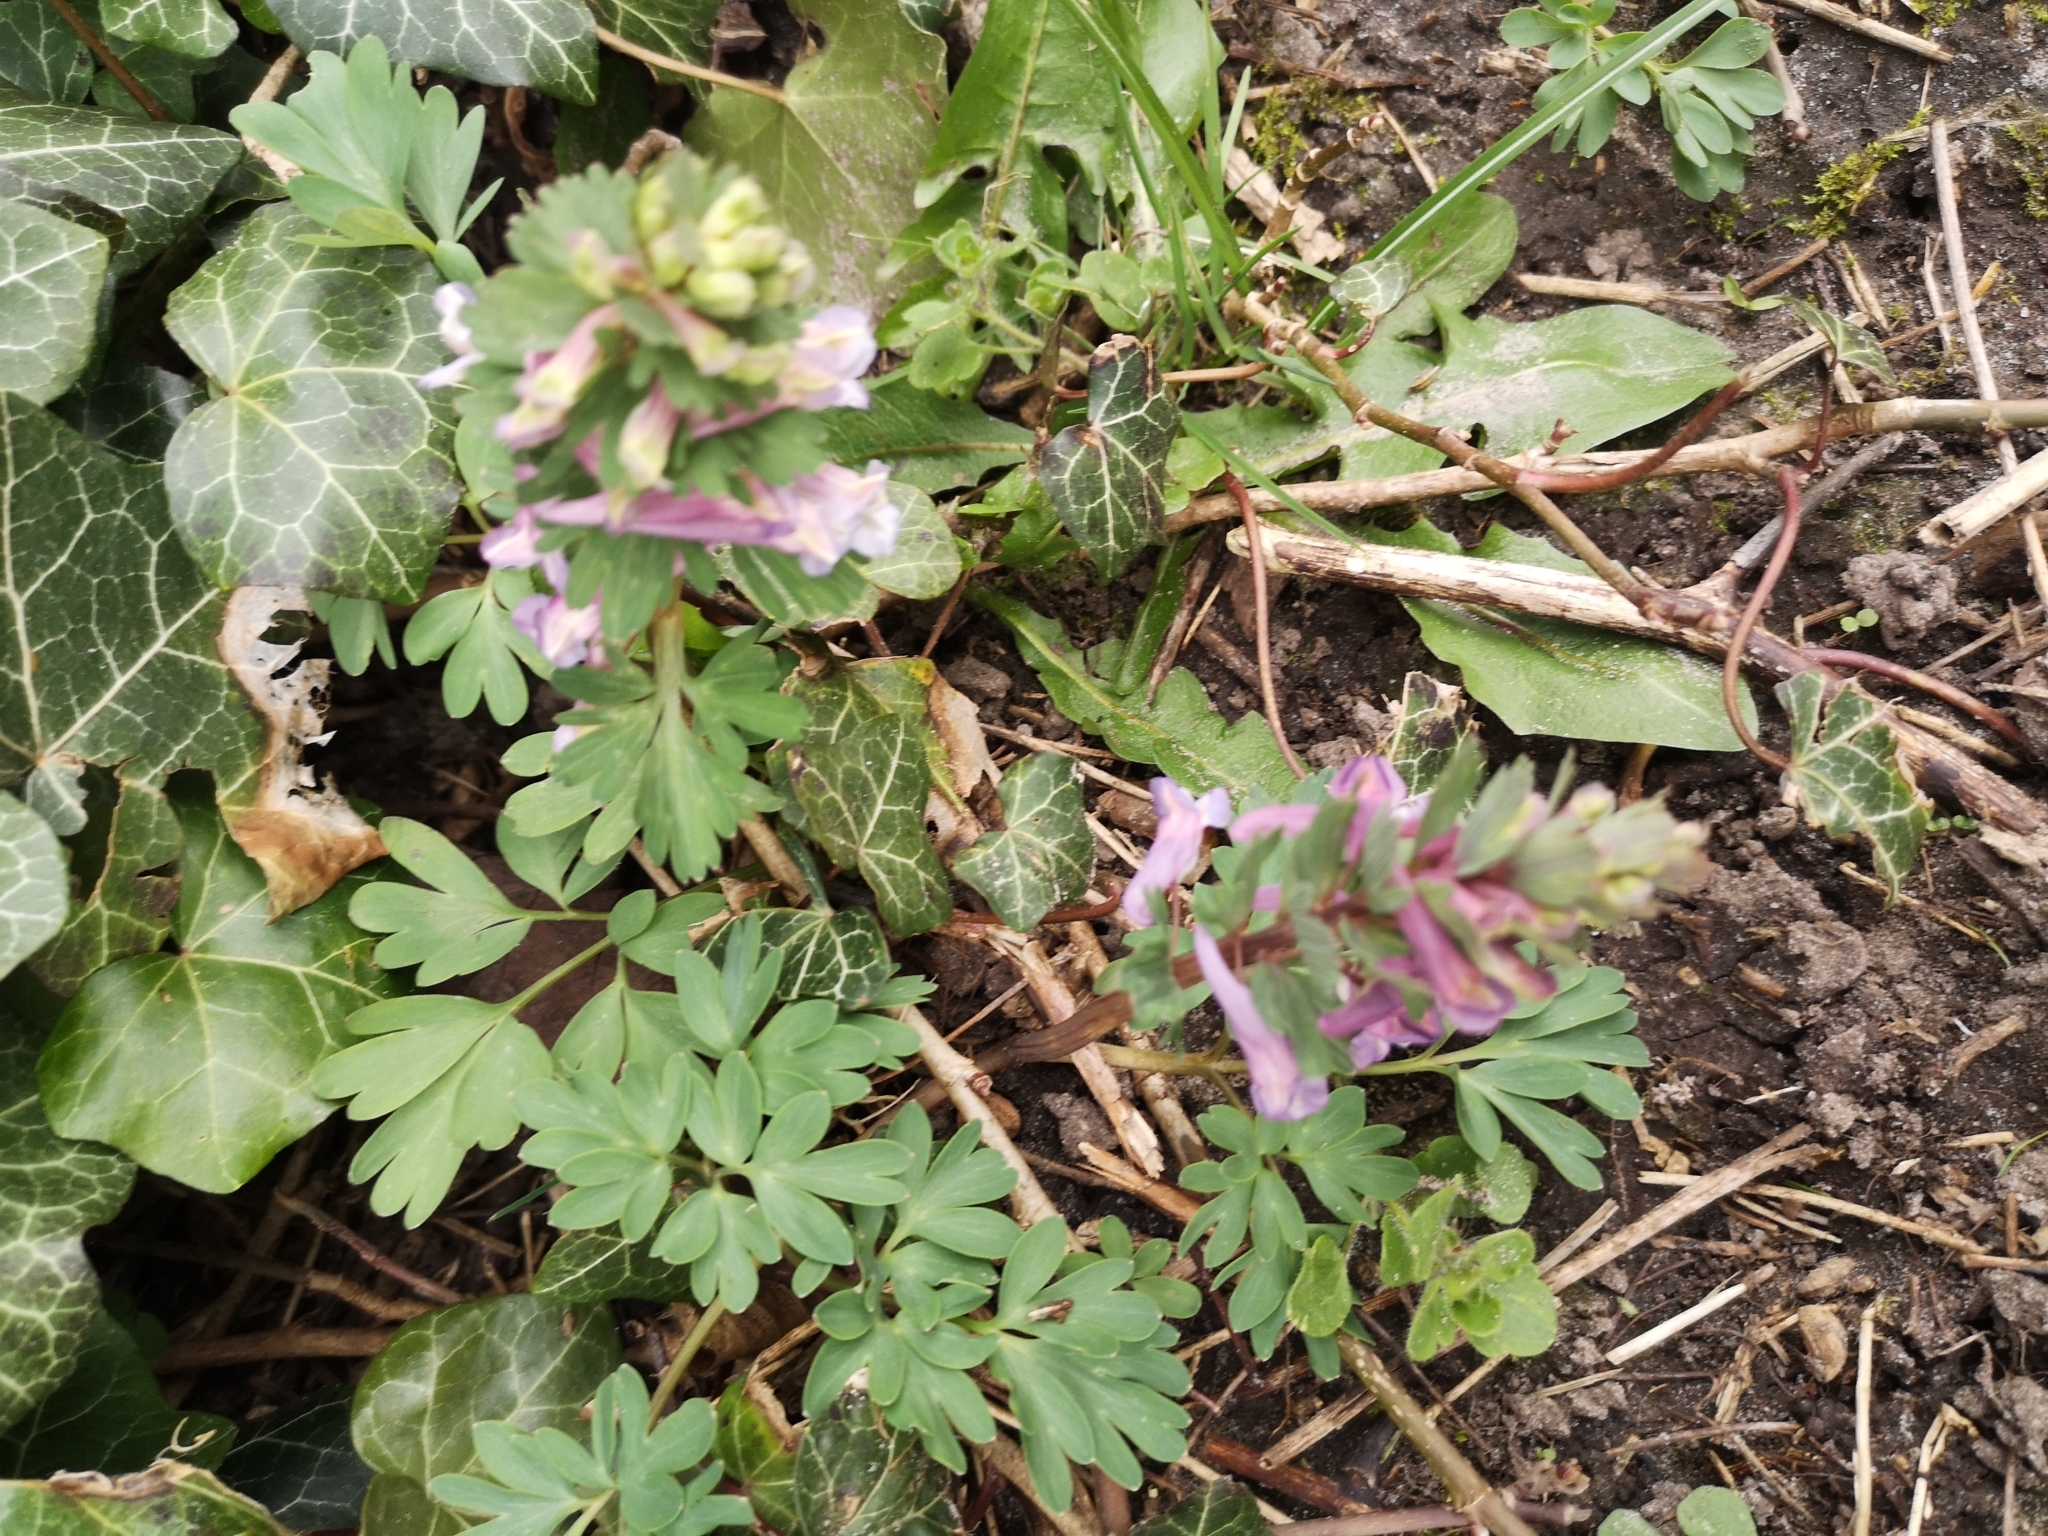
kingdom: Plantae
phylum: Tracheophyta
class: Magnoliopsida
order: Ranunculales
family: Papaveraceae
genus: Corydalis
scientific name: Corydalis solida
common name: Bird-in-a-bush
